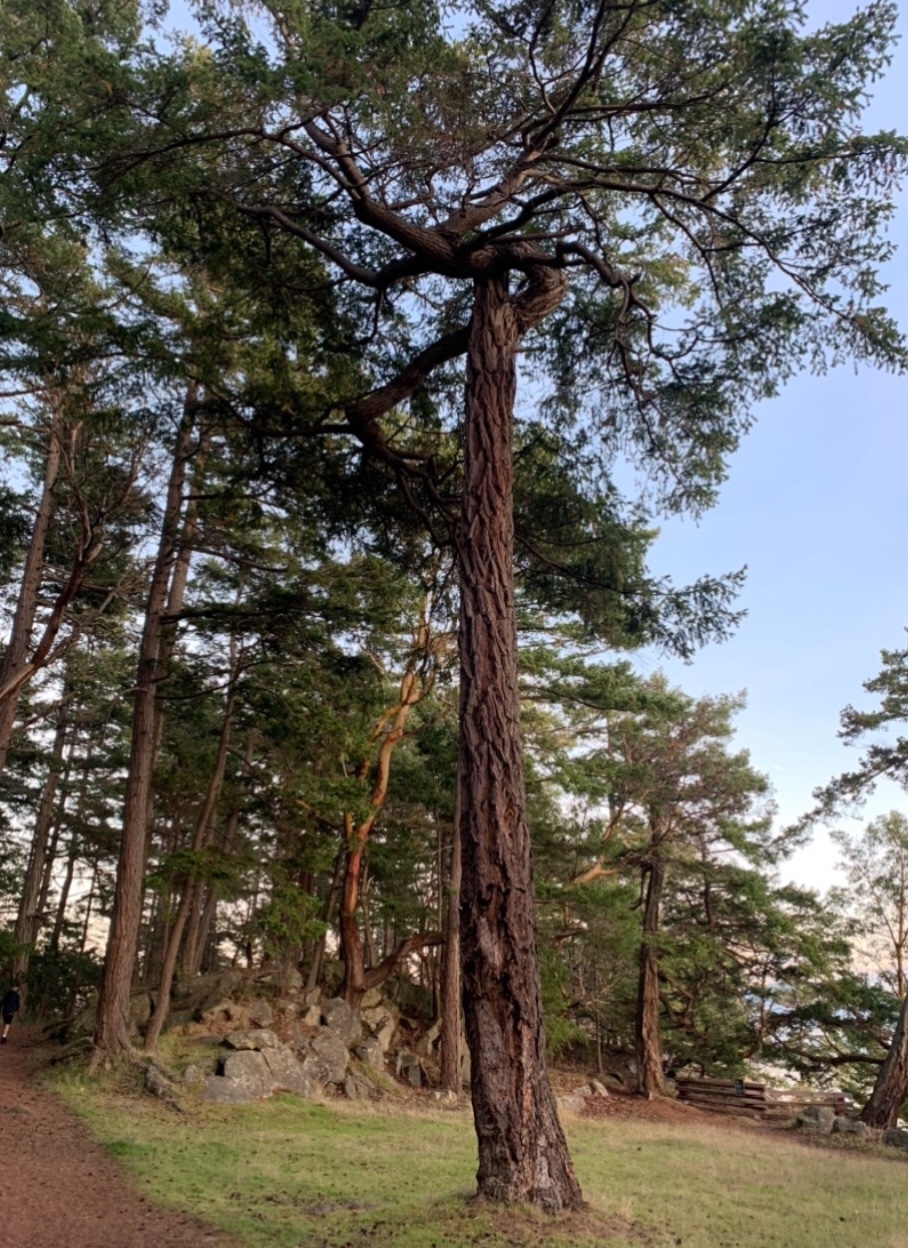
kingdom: Plantae
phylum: Tracheophyta
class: Pinopsida
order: Pinales
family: Pinaceae
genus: Pseudotsuga
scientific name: Pseudotsuga menziesii
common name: Douglas fir
